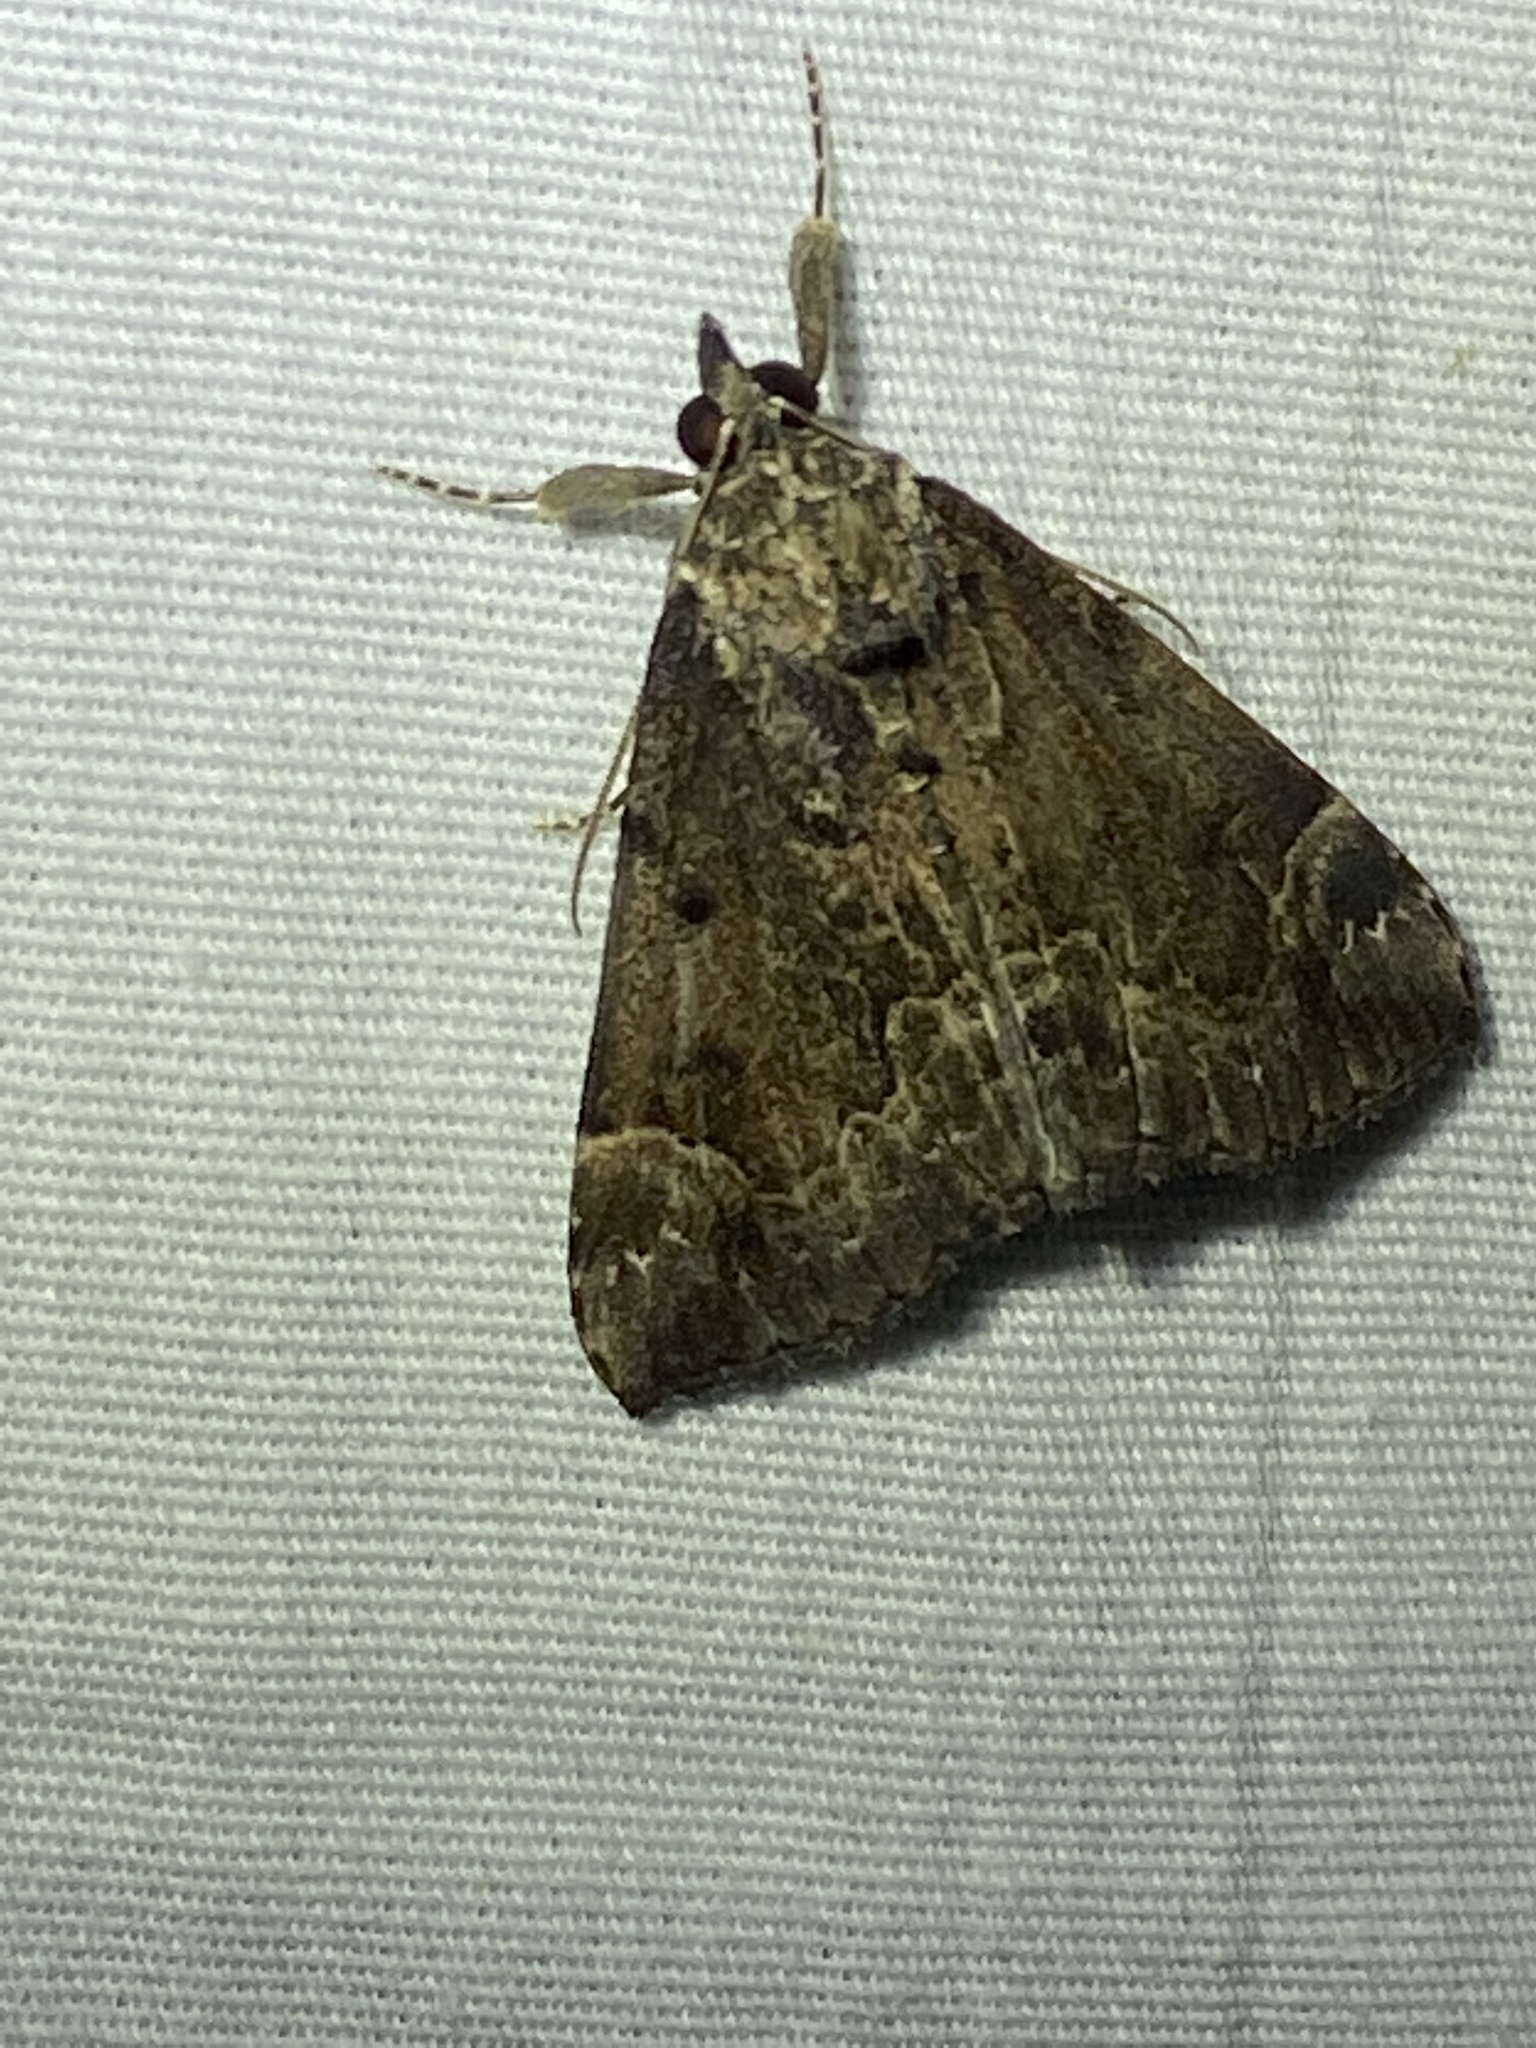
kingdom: Animalia
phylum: Arthropoda
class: Insecta
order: Lepidoptera
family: Erebidae
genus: Hypena
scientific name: Hypena baltimoralis
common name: Baltimore snout
